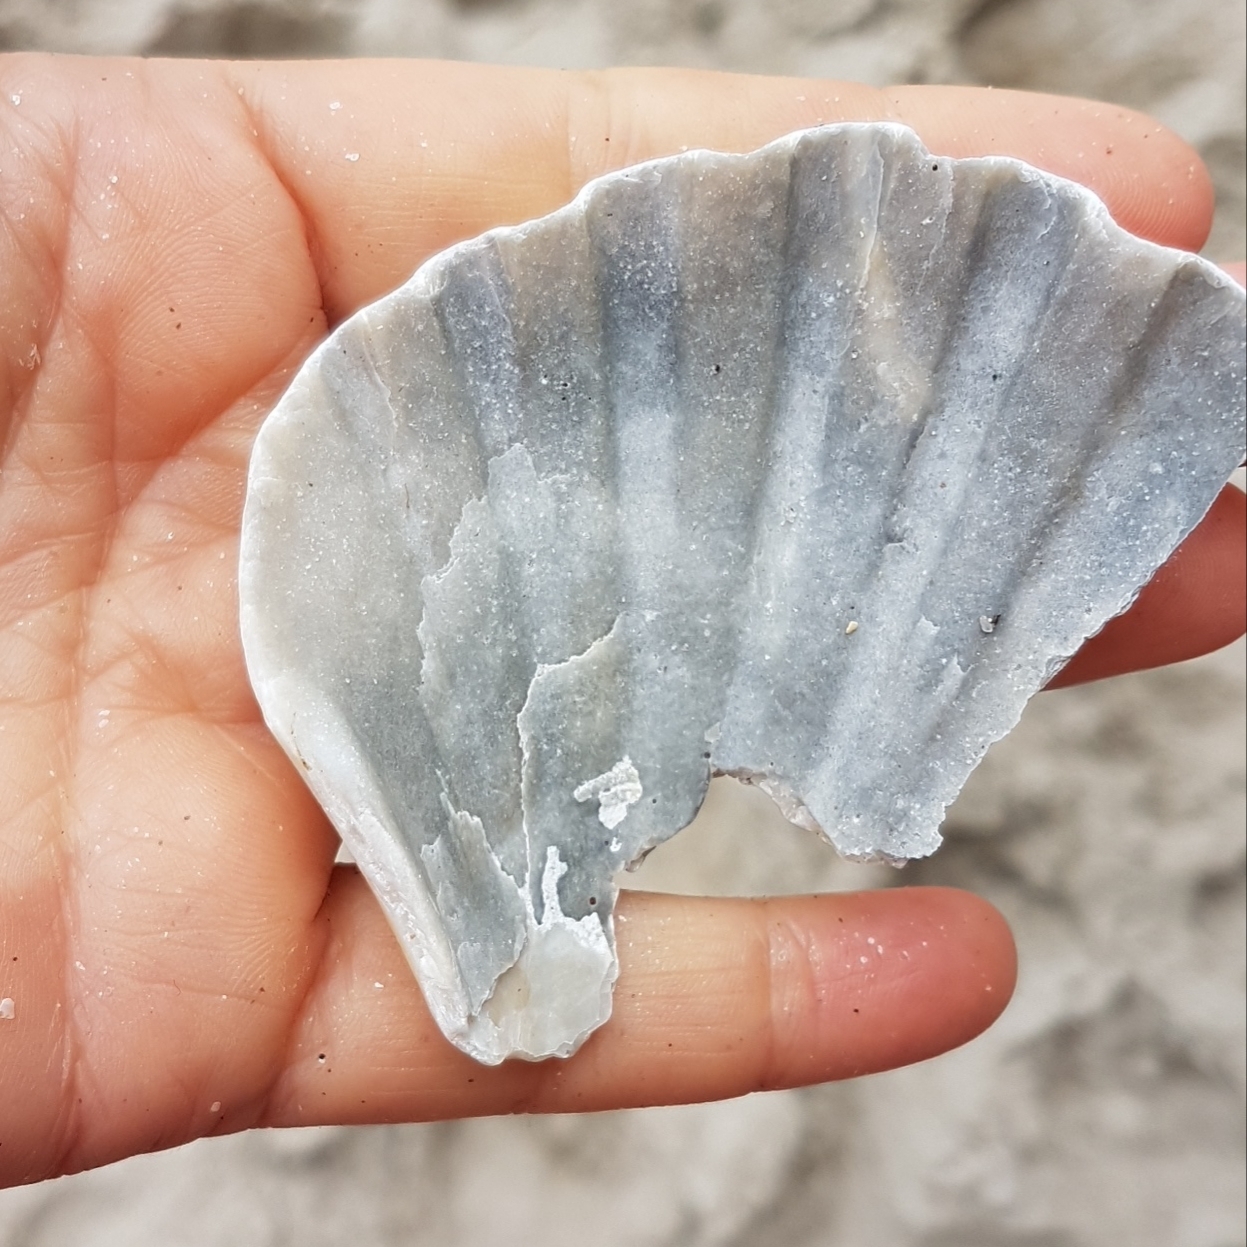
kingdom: Animalia
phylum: Mollusca
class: Bivalvia
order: Pectinida
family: Pectinidae
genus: Pecten
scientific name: Pecten maximus
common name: Great scallop
